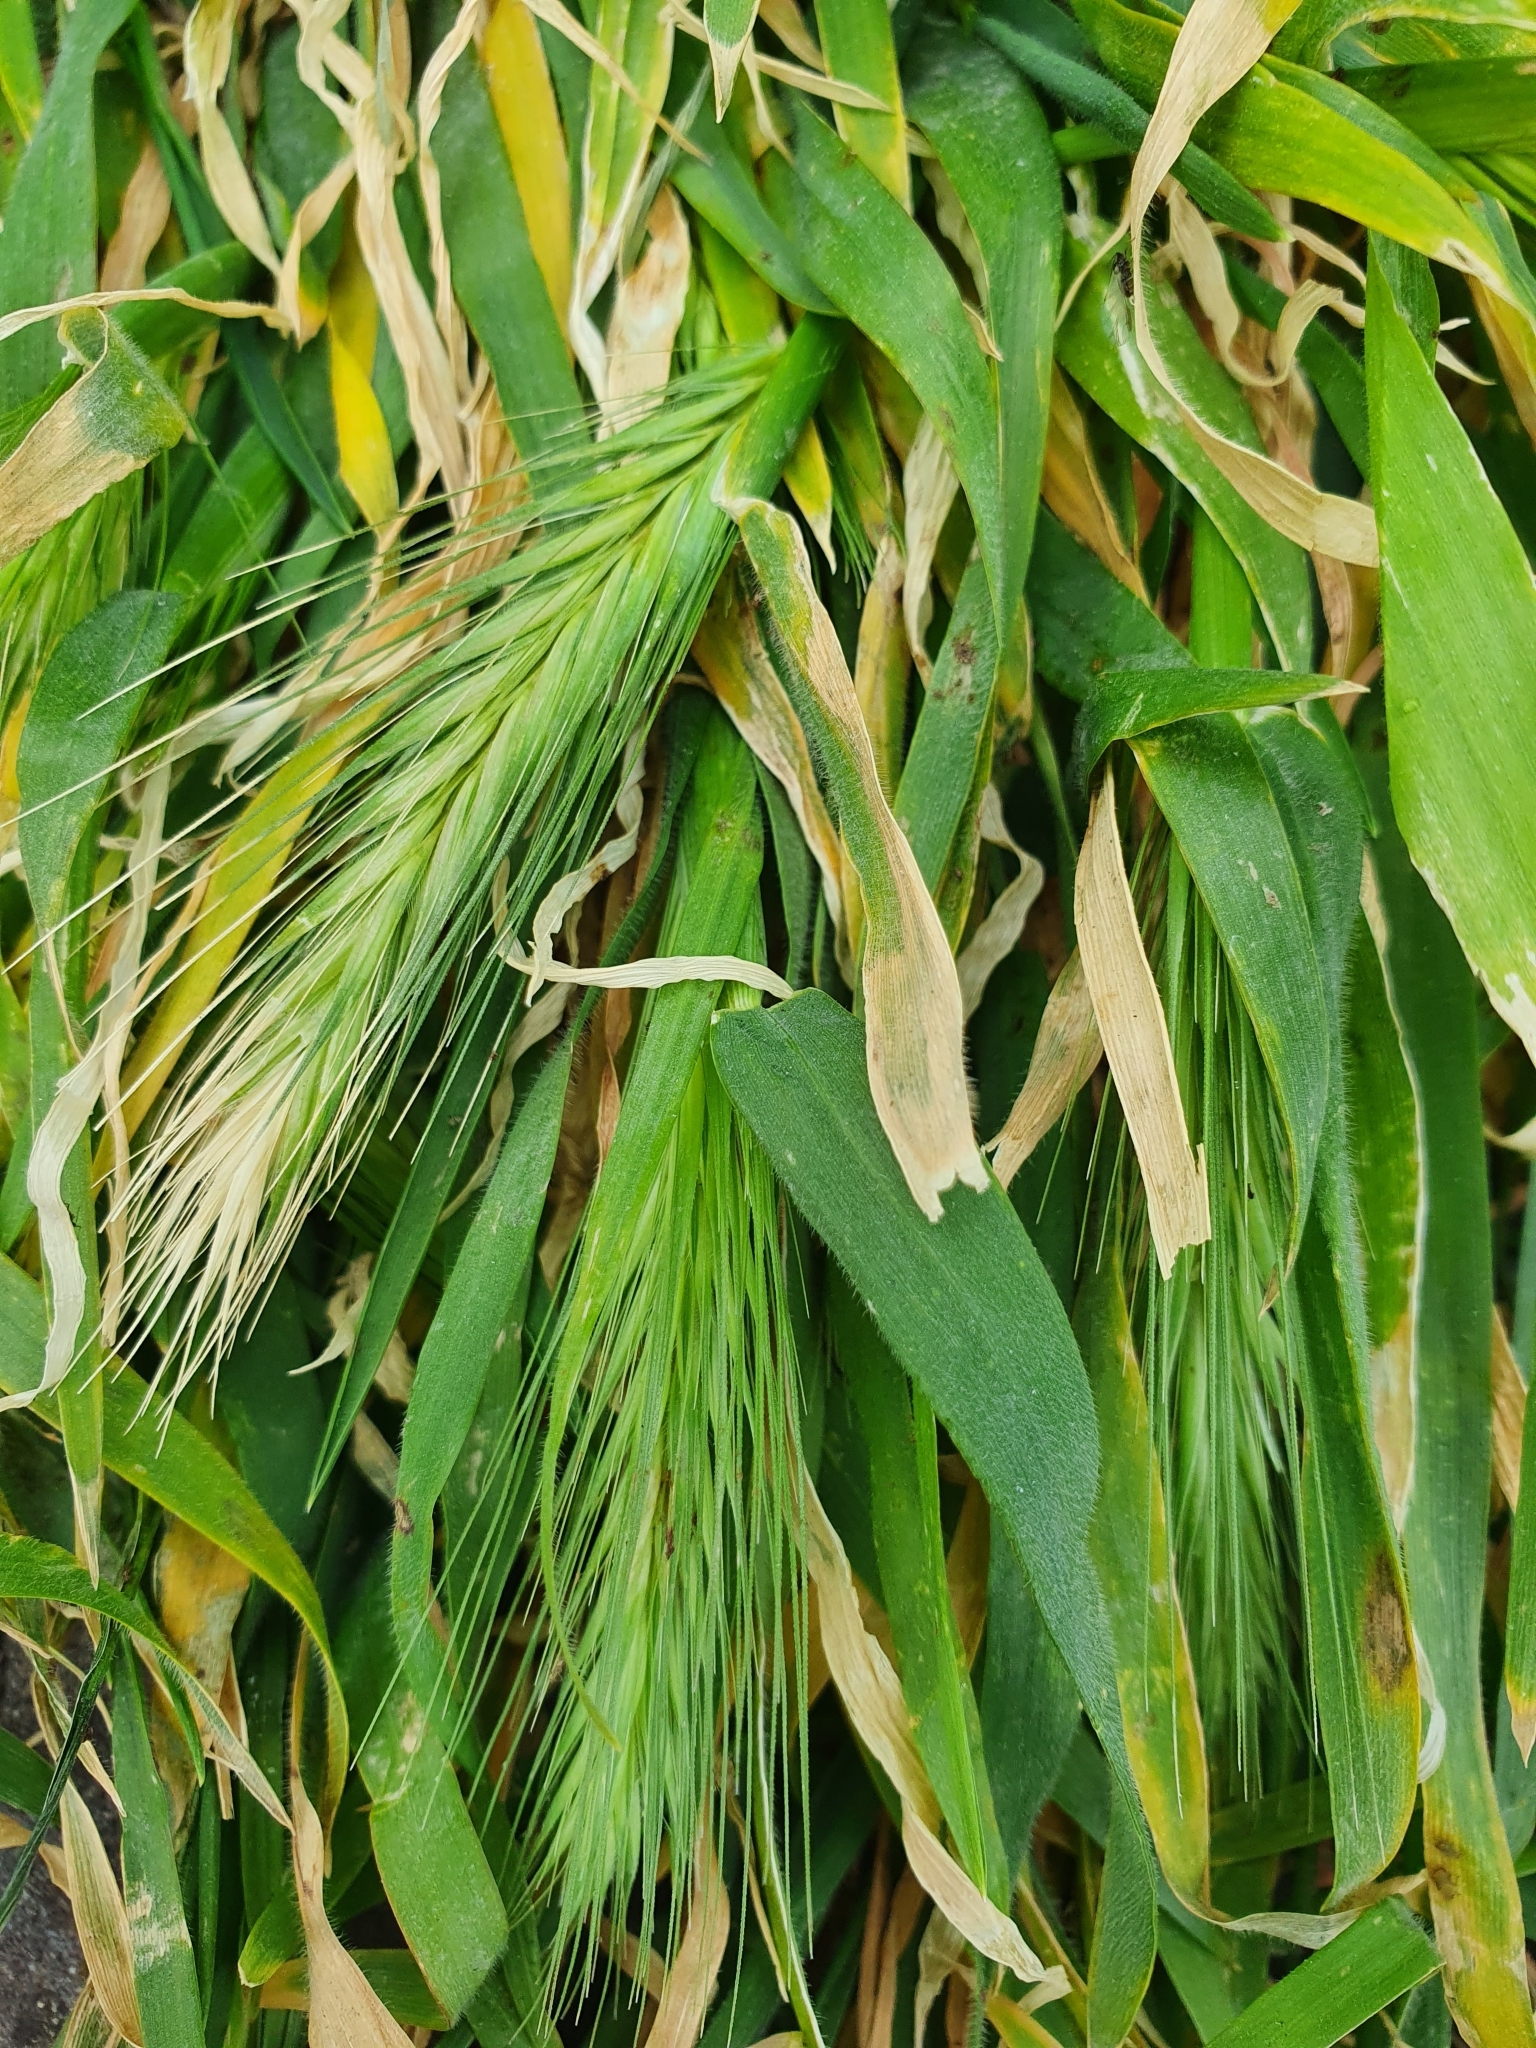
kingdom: Plantae
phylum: Tracheophyta
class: Liliopsida
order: Poales
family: Poaceae
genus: Hordeum
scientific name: Hordeum murinum
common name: Wall barley
